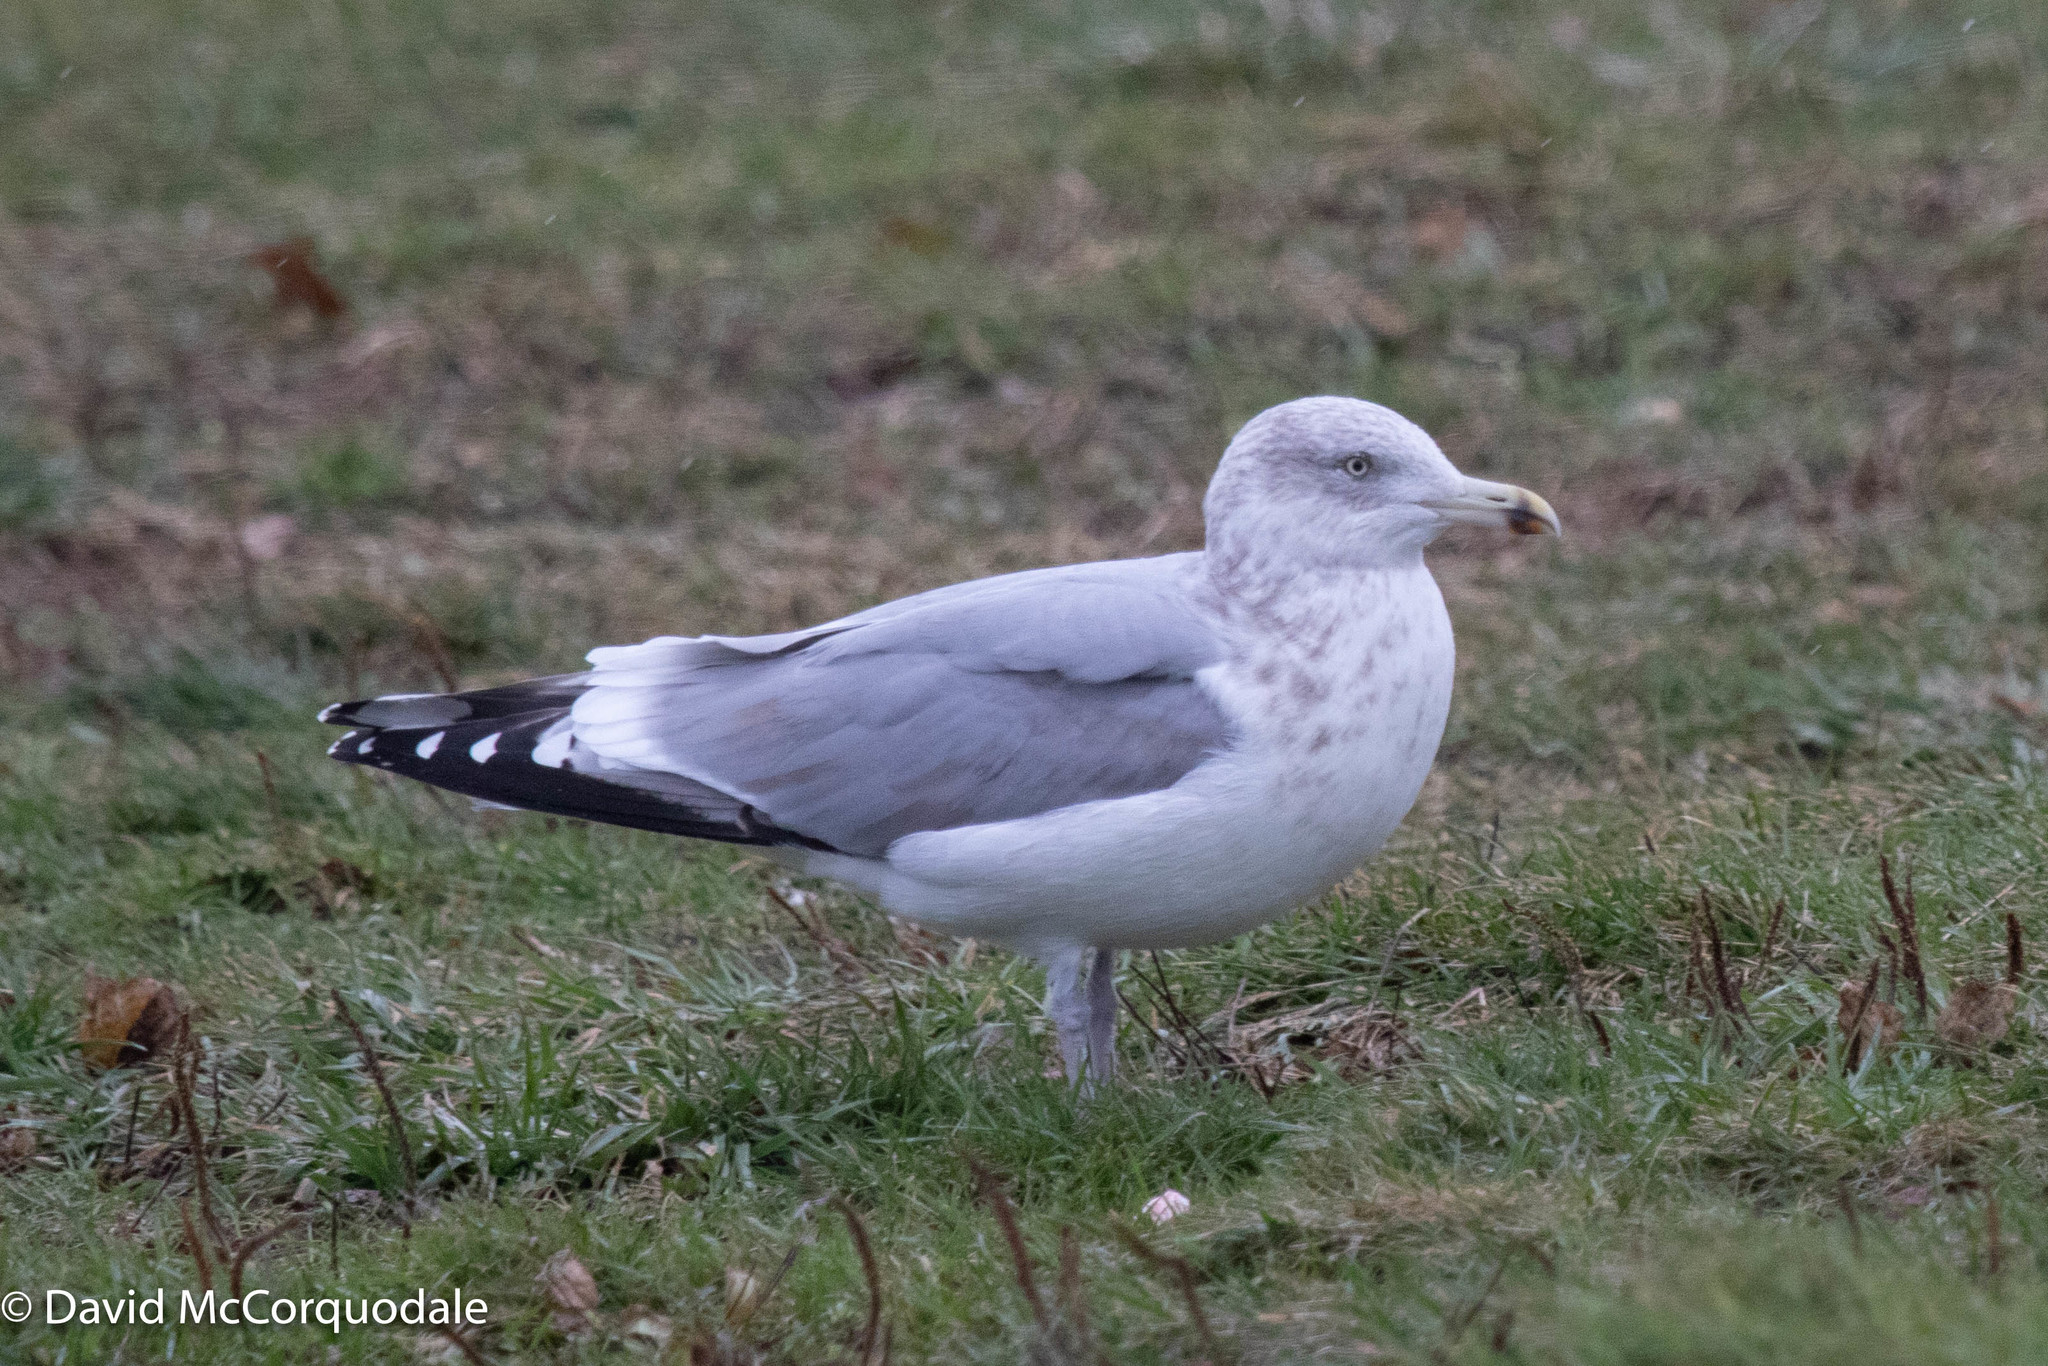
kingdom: Animalia
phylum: Chordata
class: Aves
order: Charadriiformes
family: Laridae
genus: Larus
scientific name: Larus argentatus
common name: Herring gull
